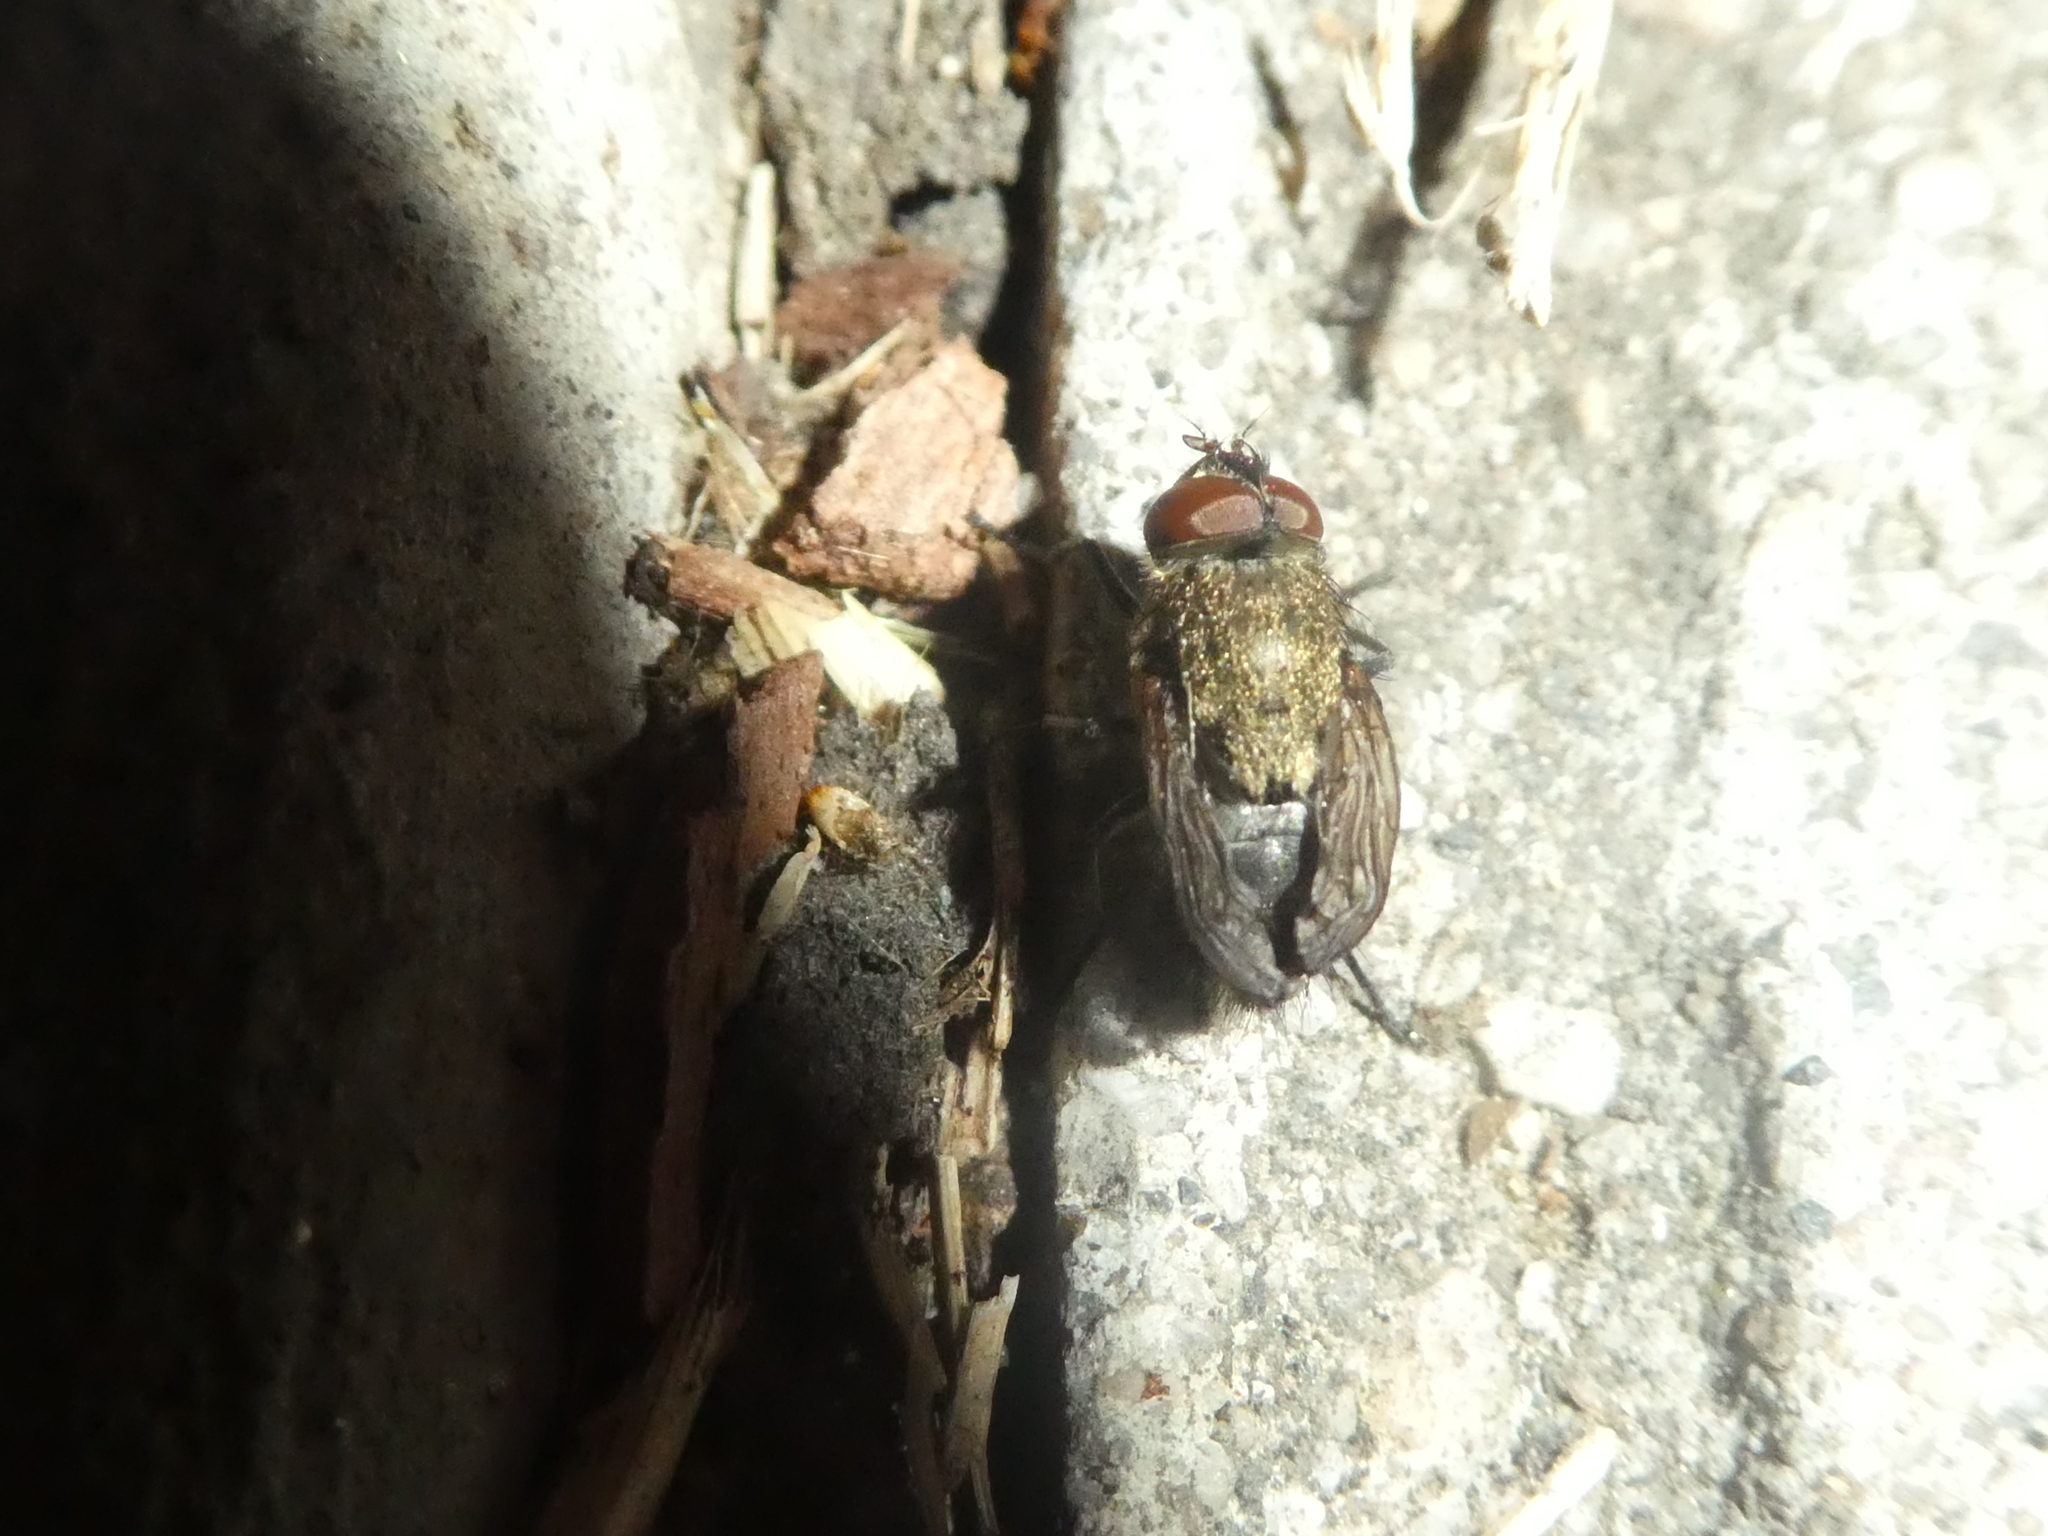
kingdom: Animalia
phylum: Arthropoda
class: Insecta
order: Diptera
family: Polleniidae
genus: Pollenia
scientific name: Pollenia
